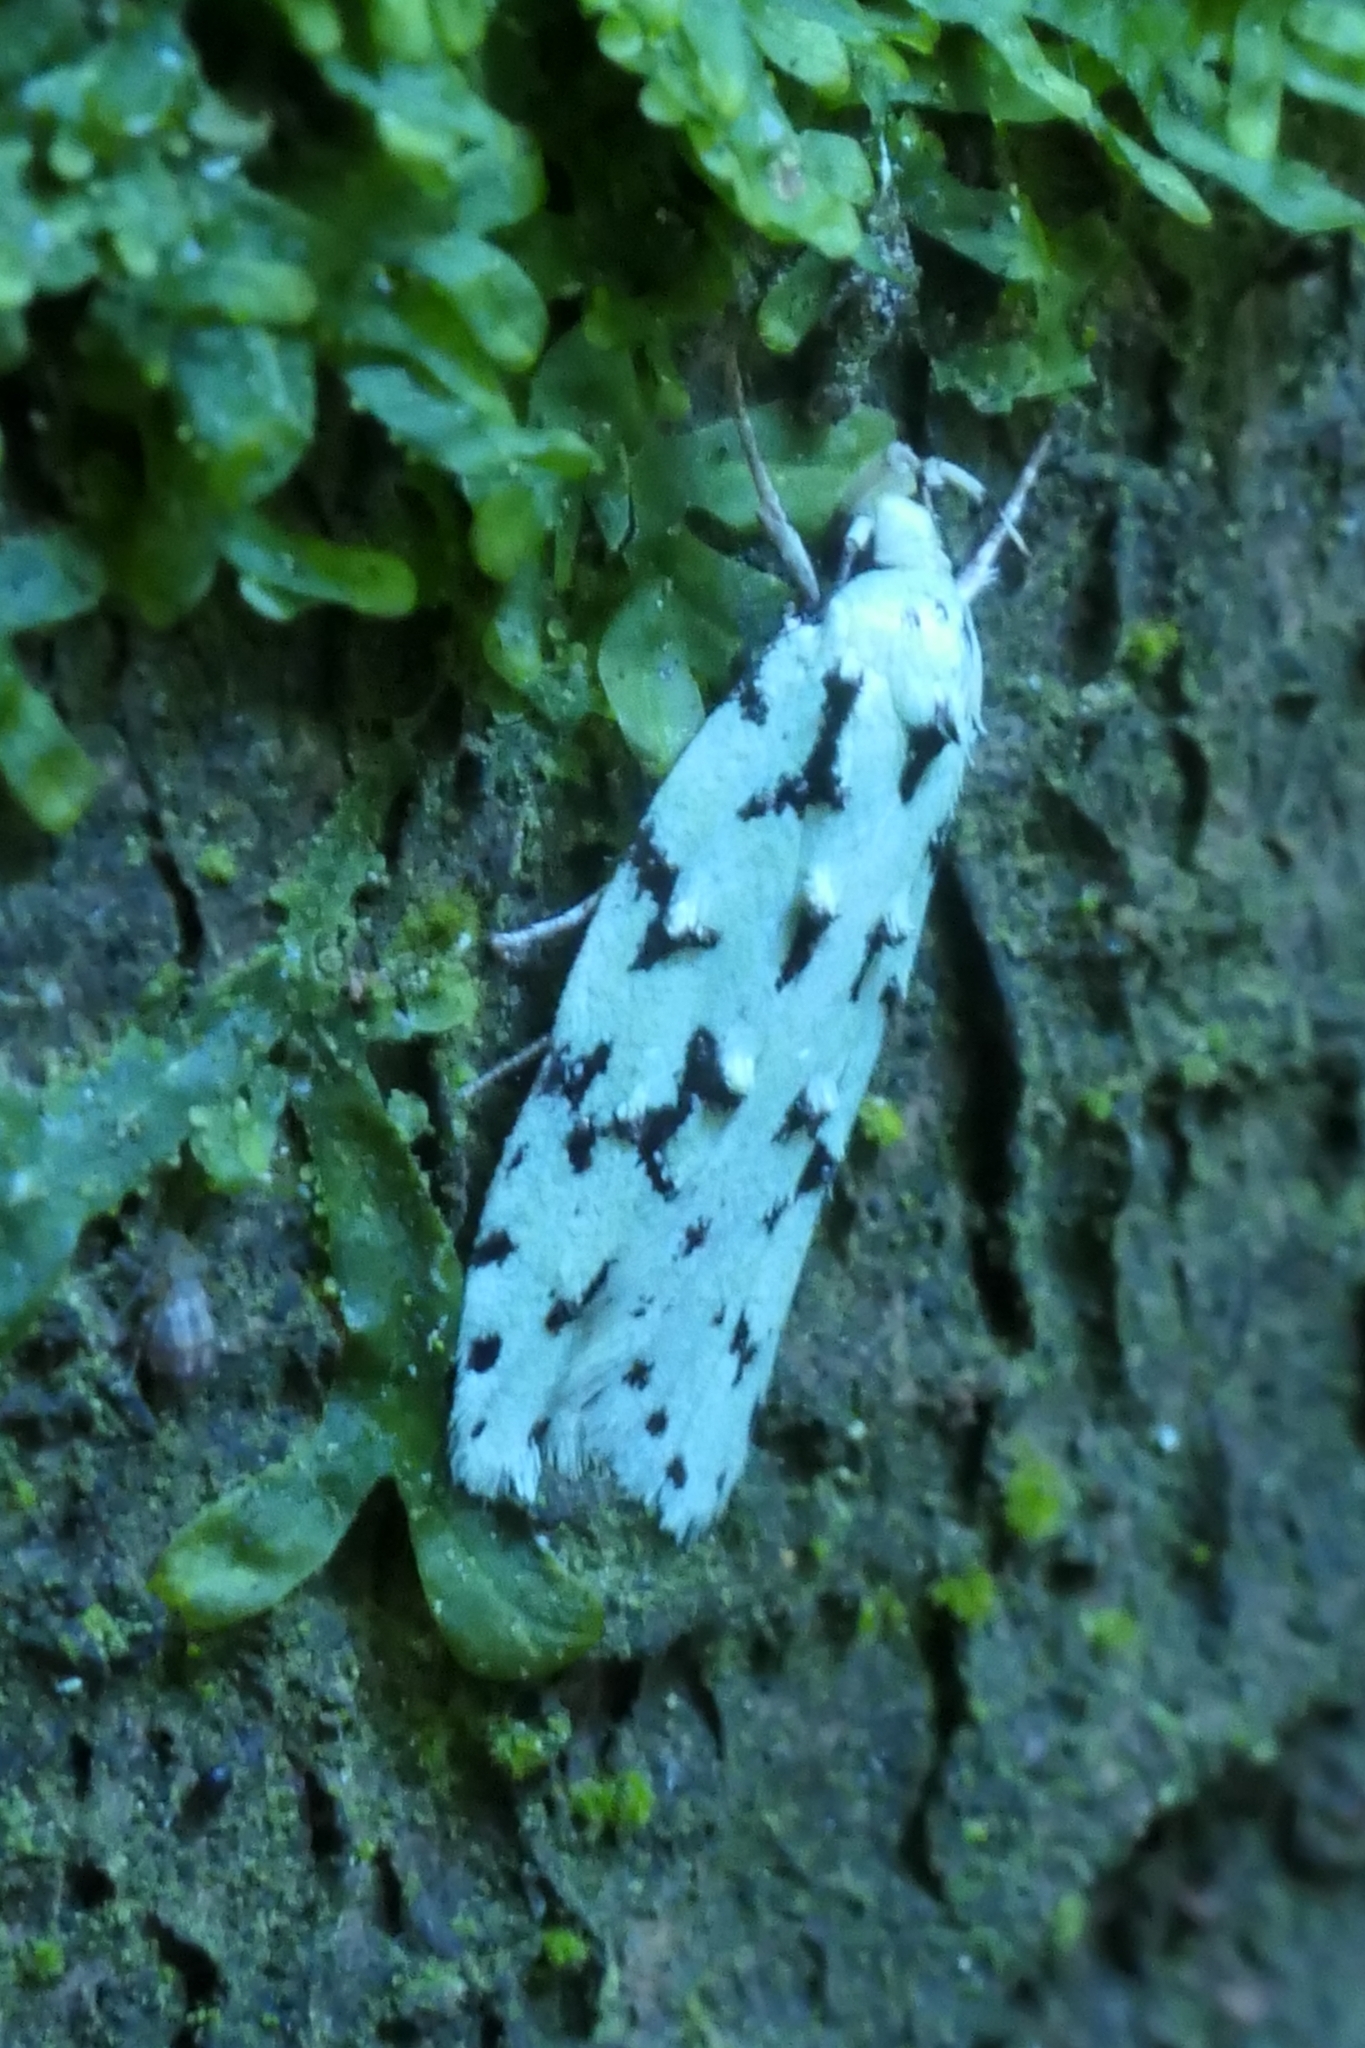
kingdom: Animalia
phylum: Arthropoda
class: Insecta
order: Lepidoptera
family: Oecophoridae
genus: Izatha
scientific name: Izatha huttoni
